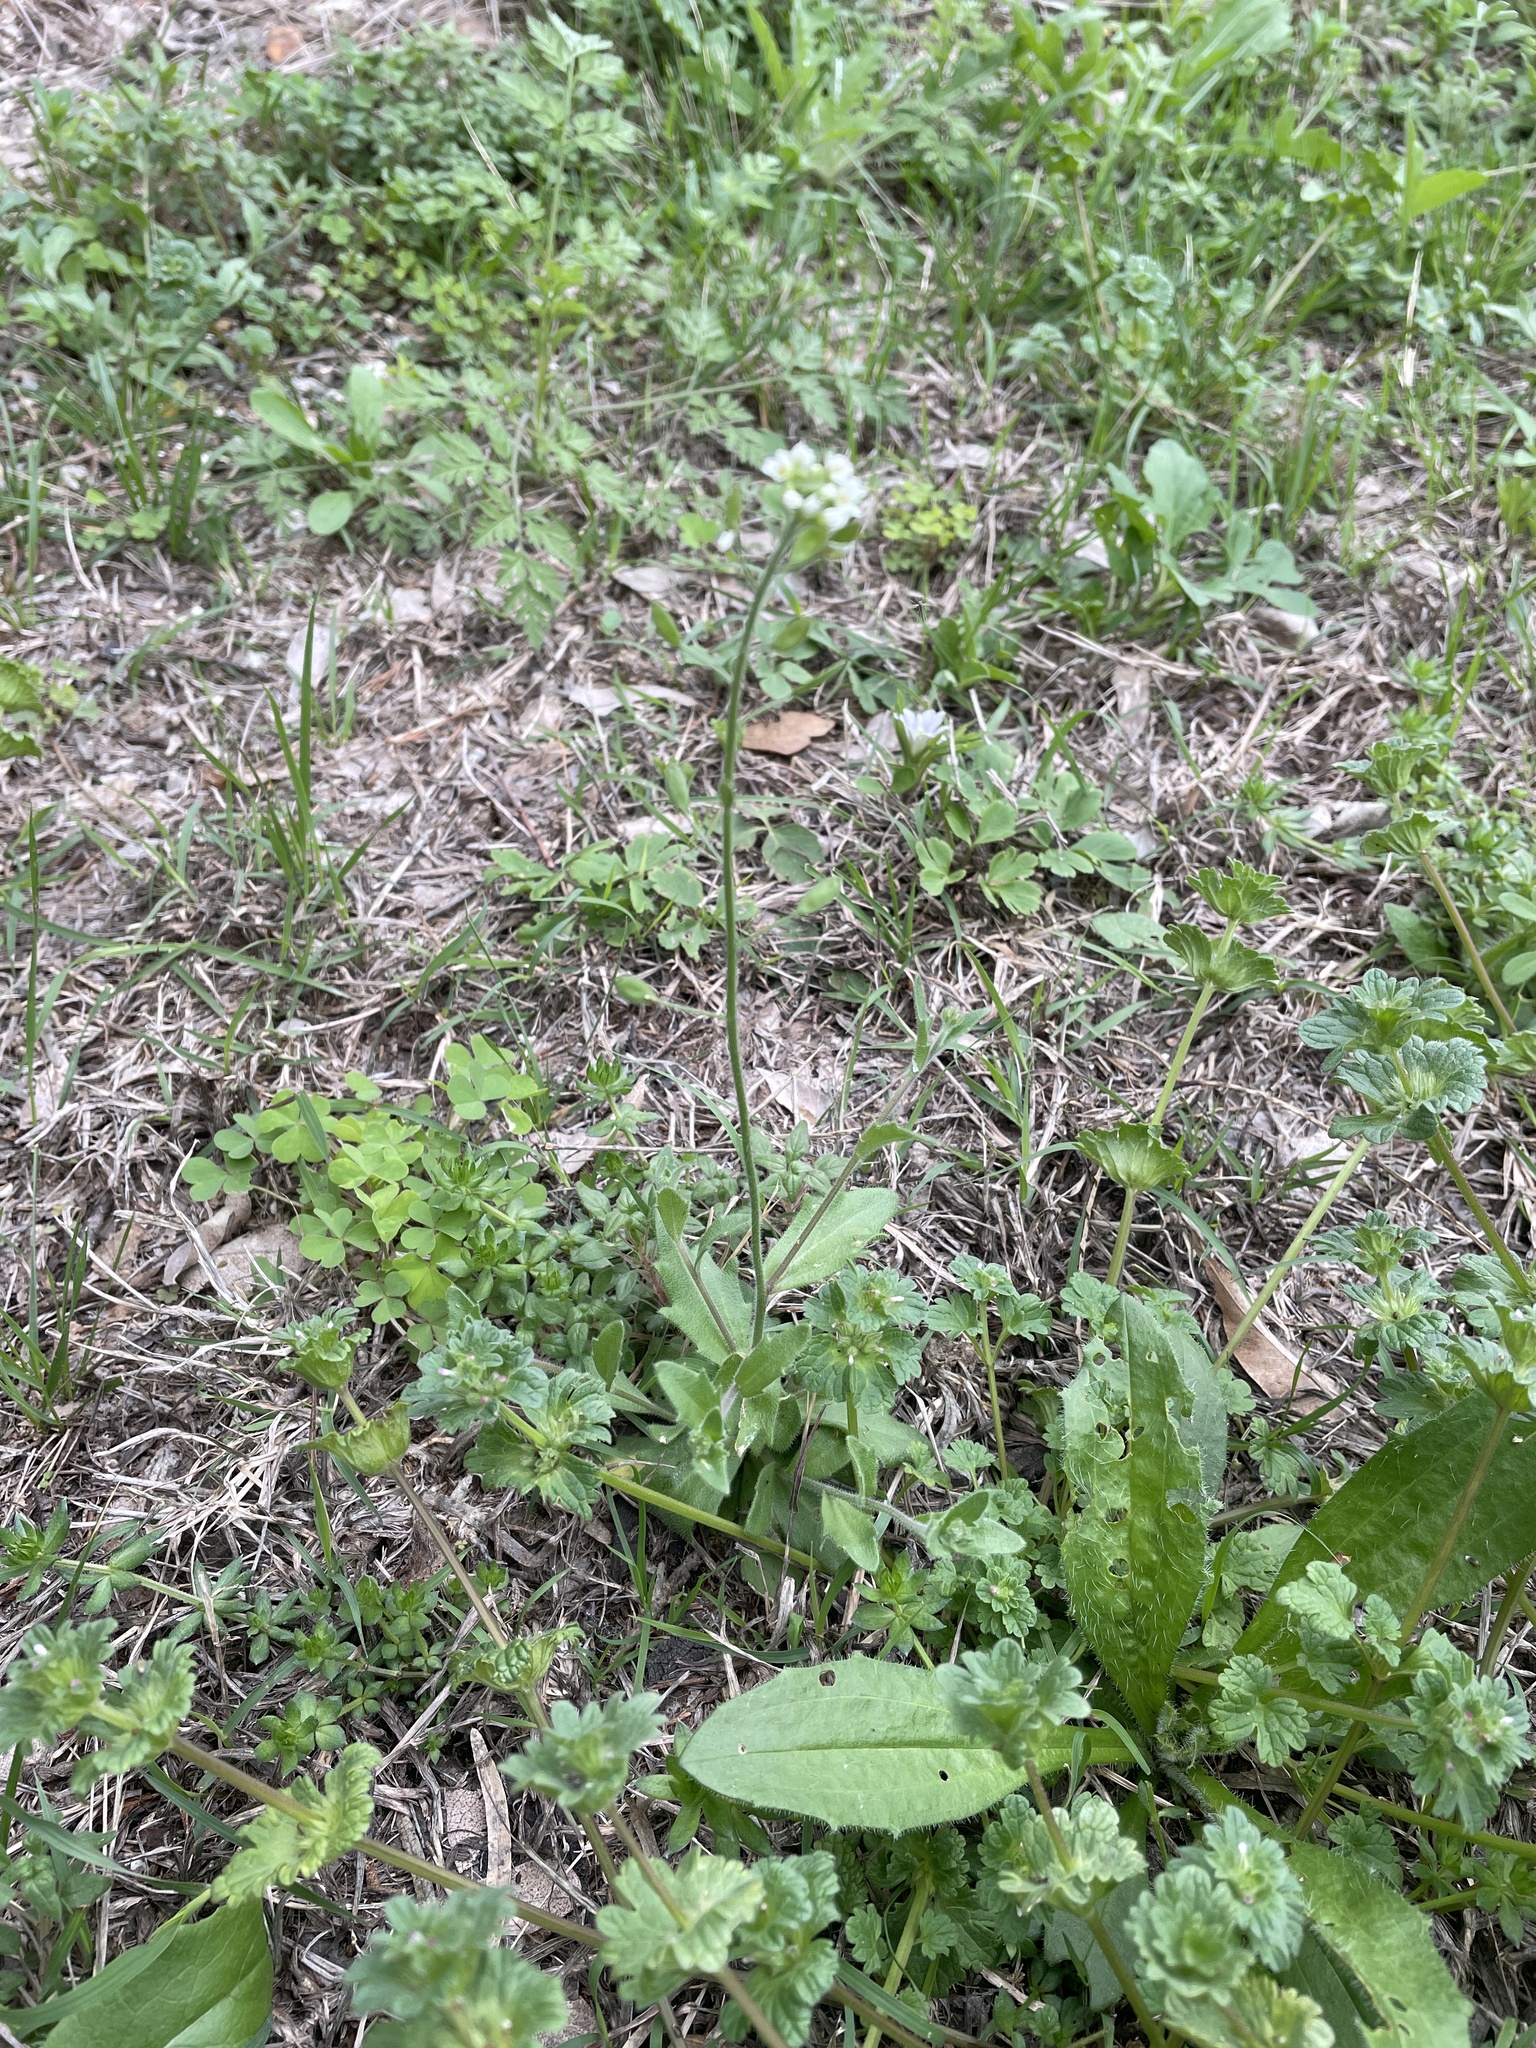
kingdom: Plantae
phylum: Tracheophyta
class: Magnoliopsida
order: Brassicales
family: Brassicaceae
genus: Tomostima
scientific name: Tomostima platycarpa
